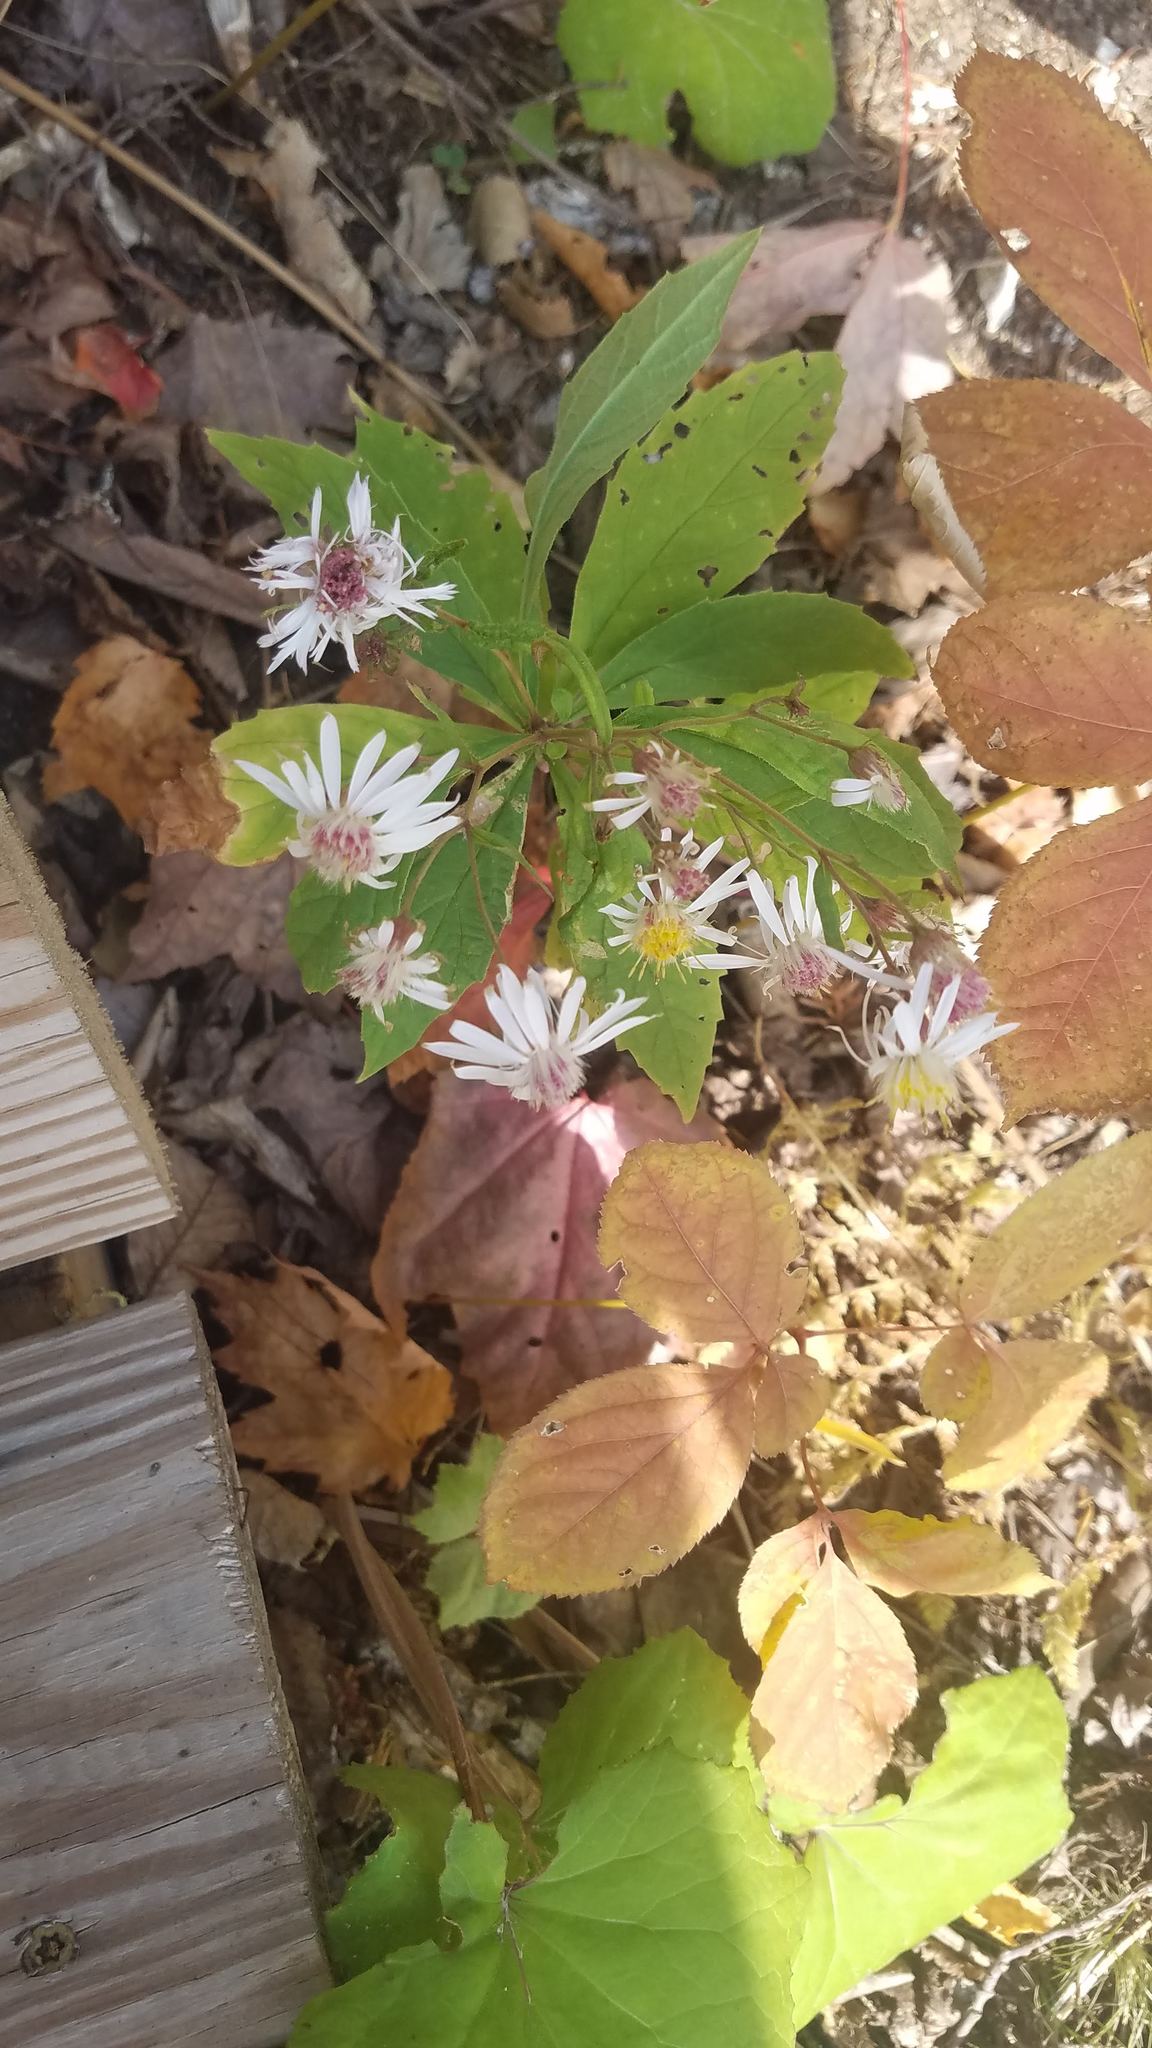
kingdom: Plantae
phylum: Tracheophyta
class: Magnoliopsida
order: Asterales
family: Asteraceae
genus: Oclemena
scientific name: Oclemena acuminata
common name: Mountain aster
